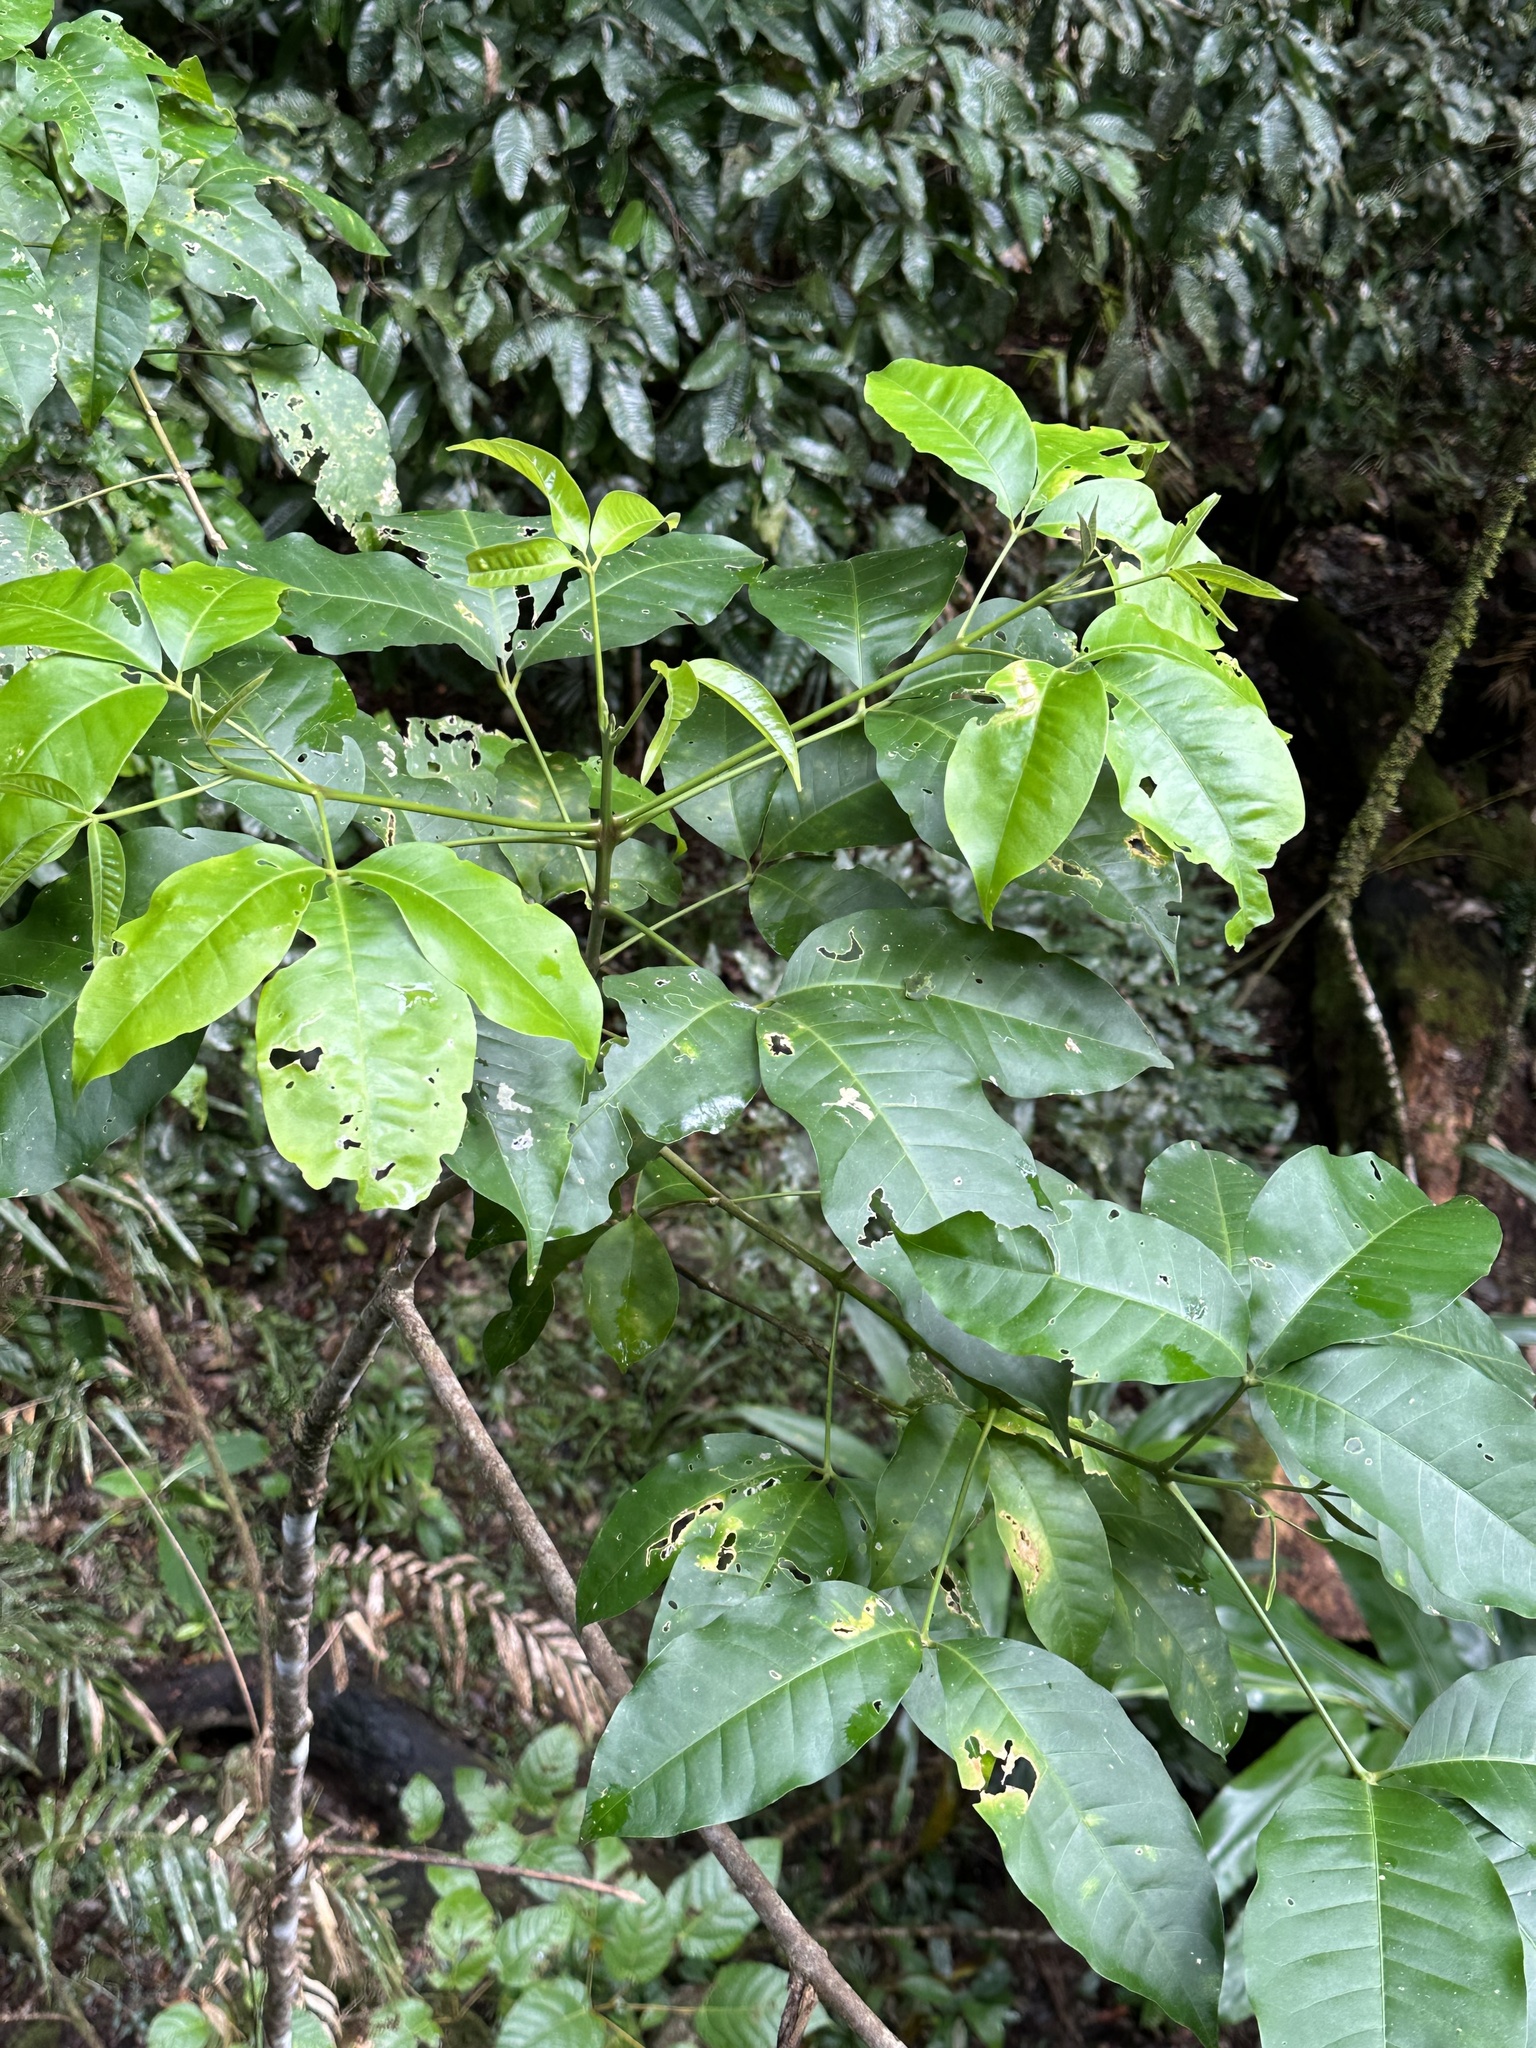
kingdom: Plantae
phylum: Tracheophyta
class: Magnoliopsida
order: Sapindales
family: Rutaceae
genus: Melicope
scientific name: Melicope elleryana
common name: Pink euodia
